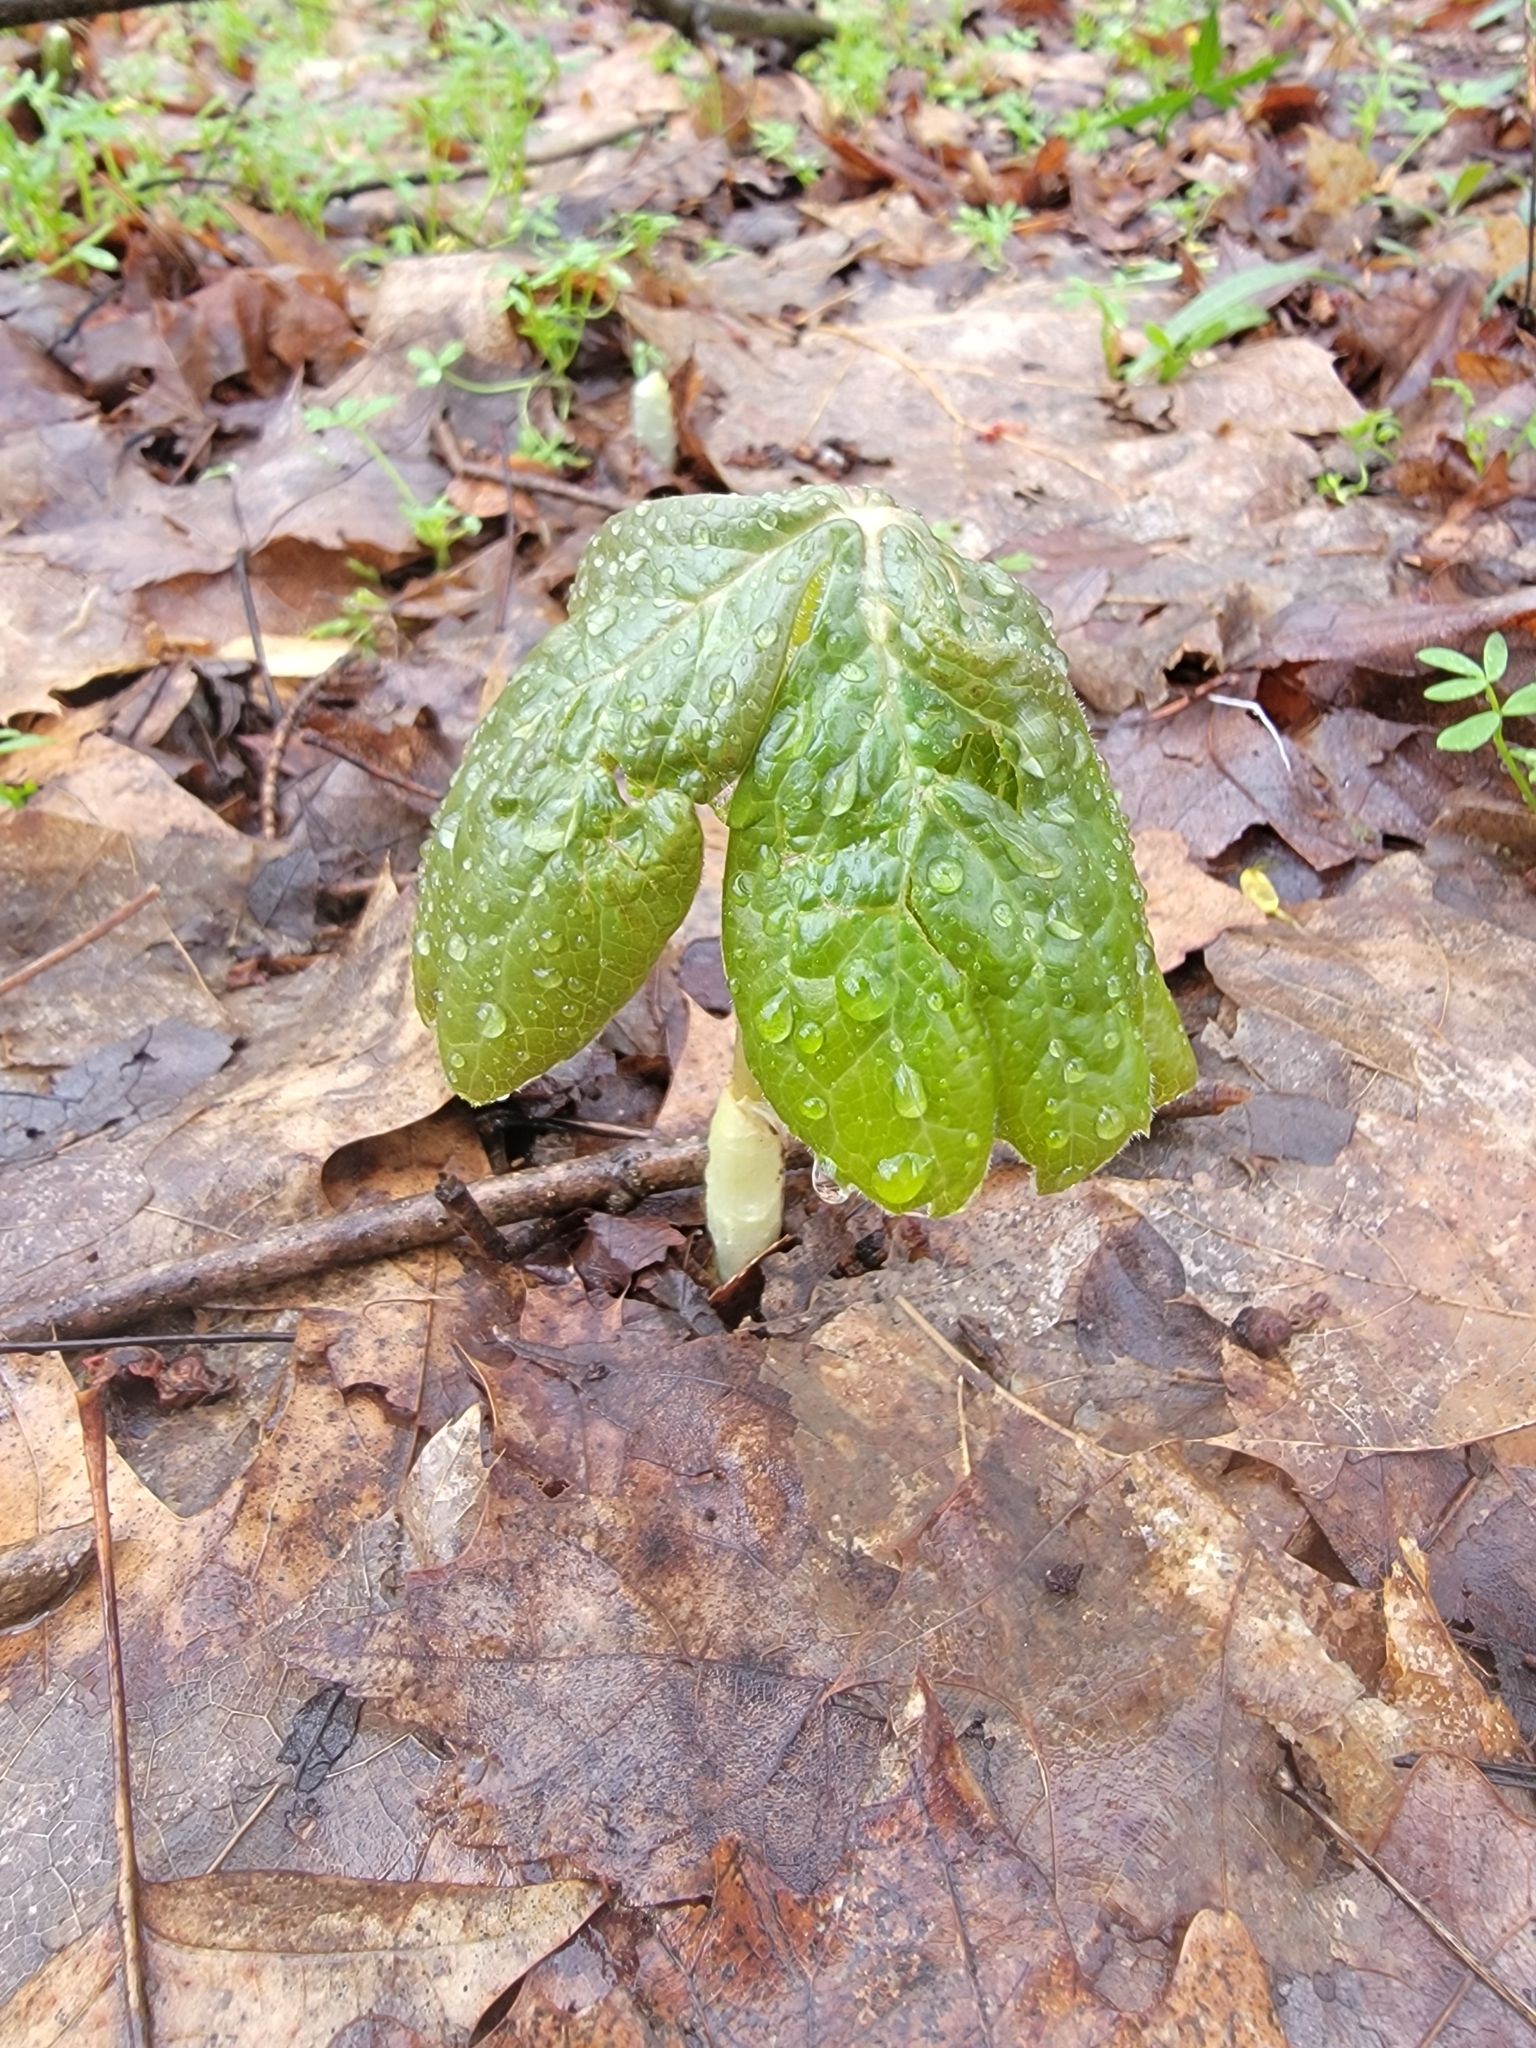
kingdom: Plantae
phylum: Tracheophyta
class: Magnoliopsida
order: Ranunculales
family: Berberidaceae
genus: Podophyllum
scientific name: Podophyllum peltatum
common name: Wild mandrake
